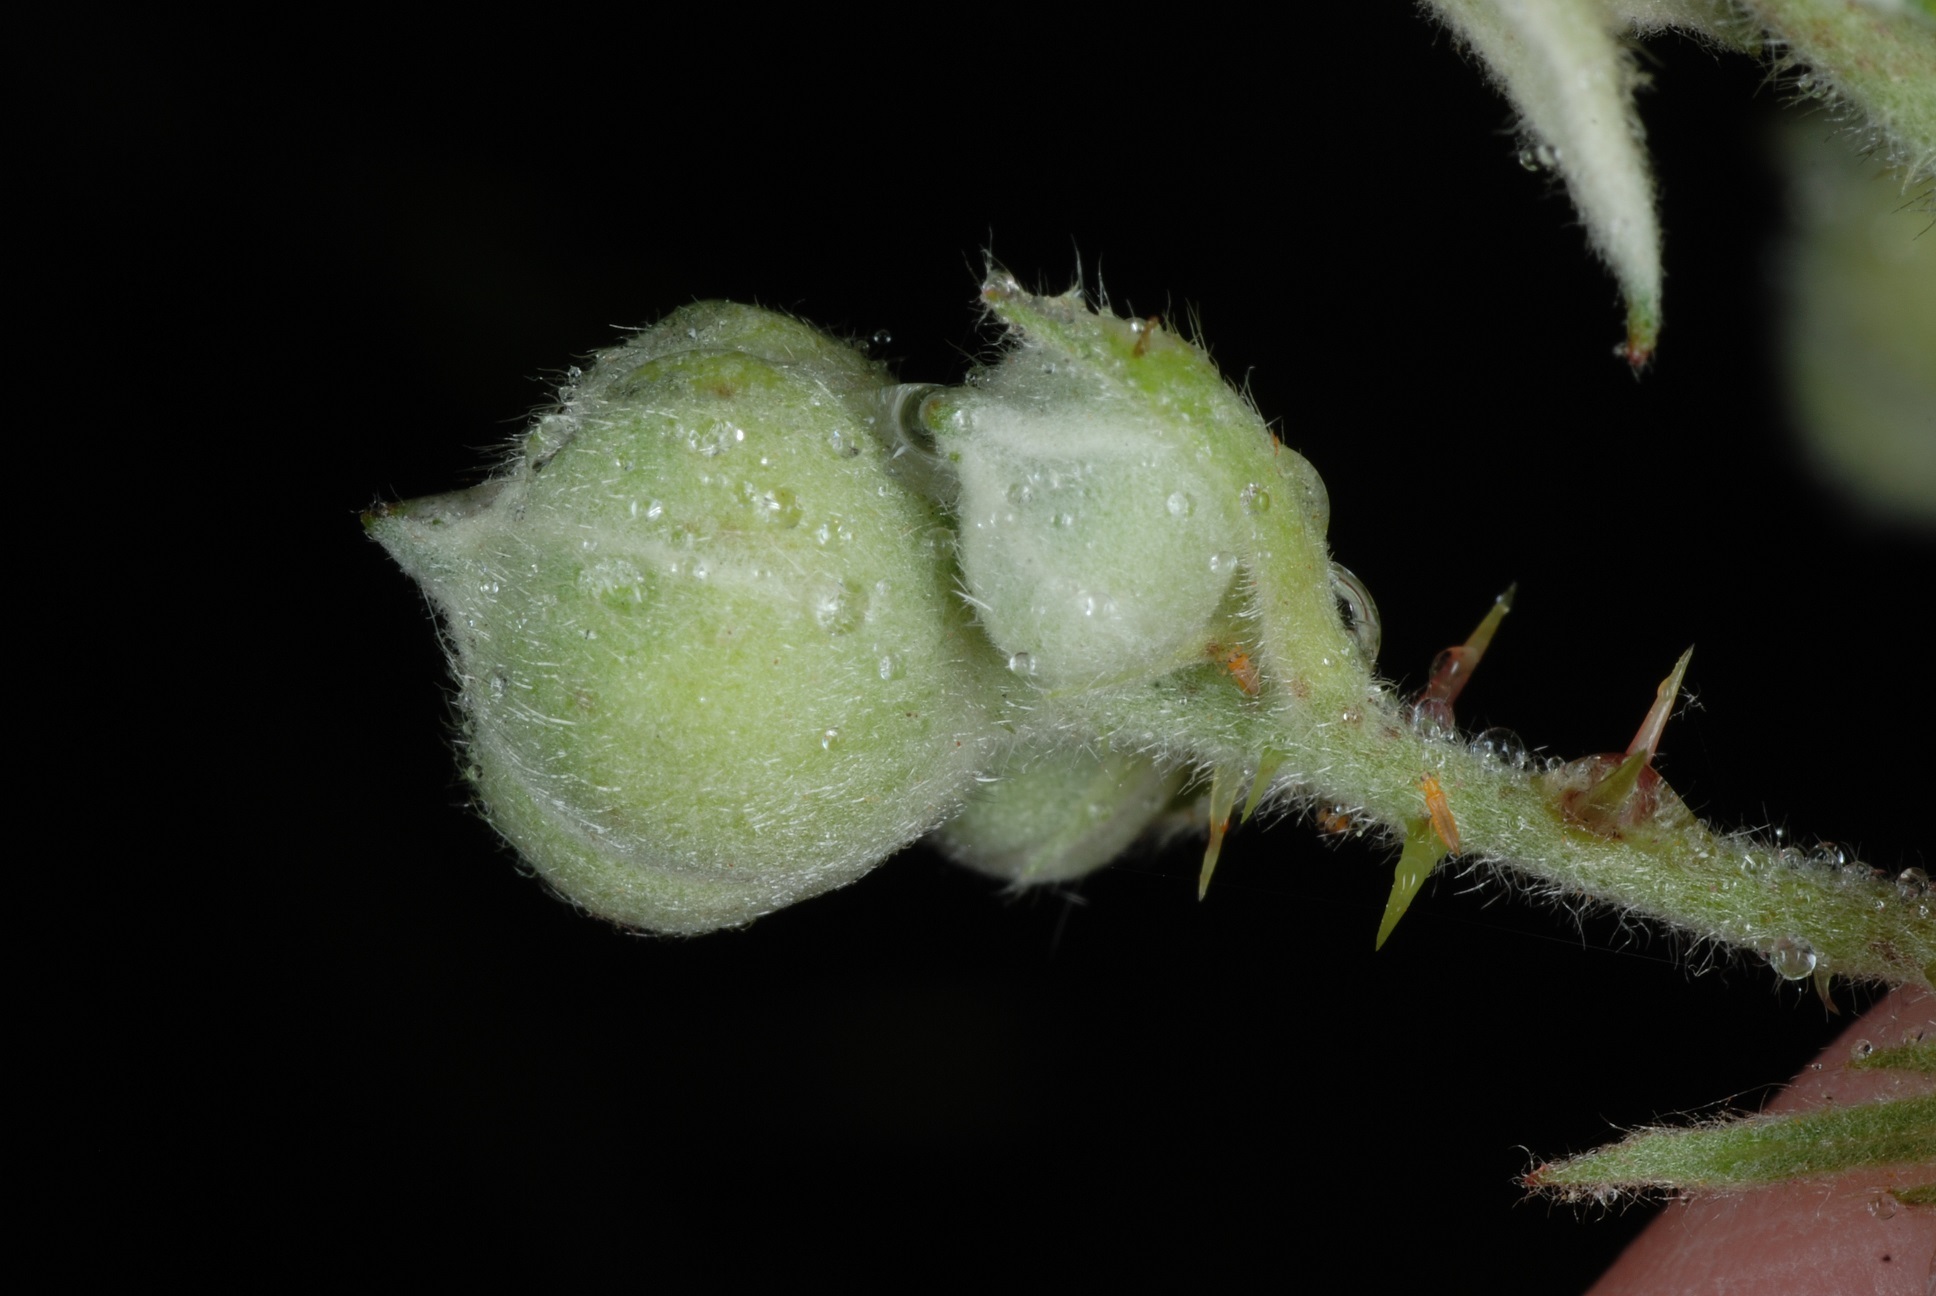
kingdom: Plantae
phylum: Tracheophyta
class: Magnoliopsida
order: Rosales
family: Rosaceae
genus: Rubus
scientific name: Rubus bifrons
